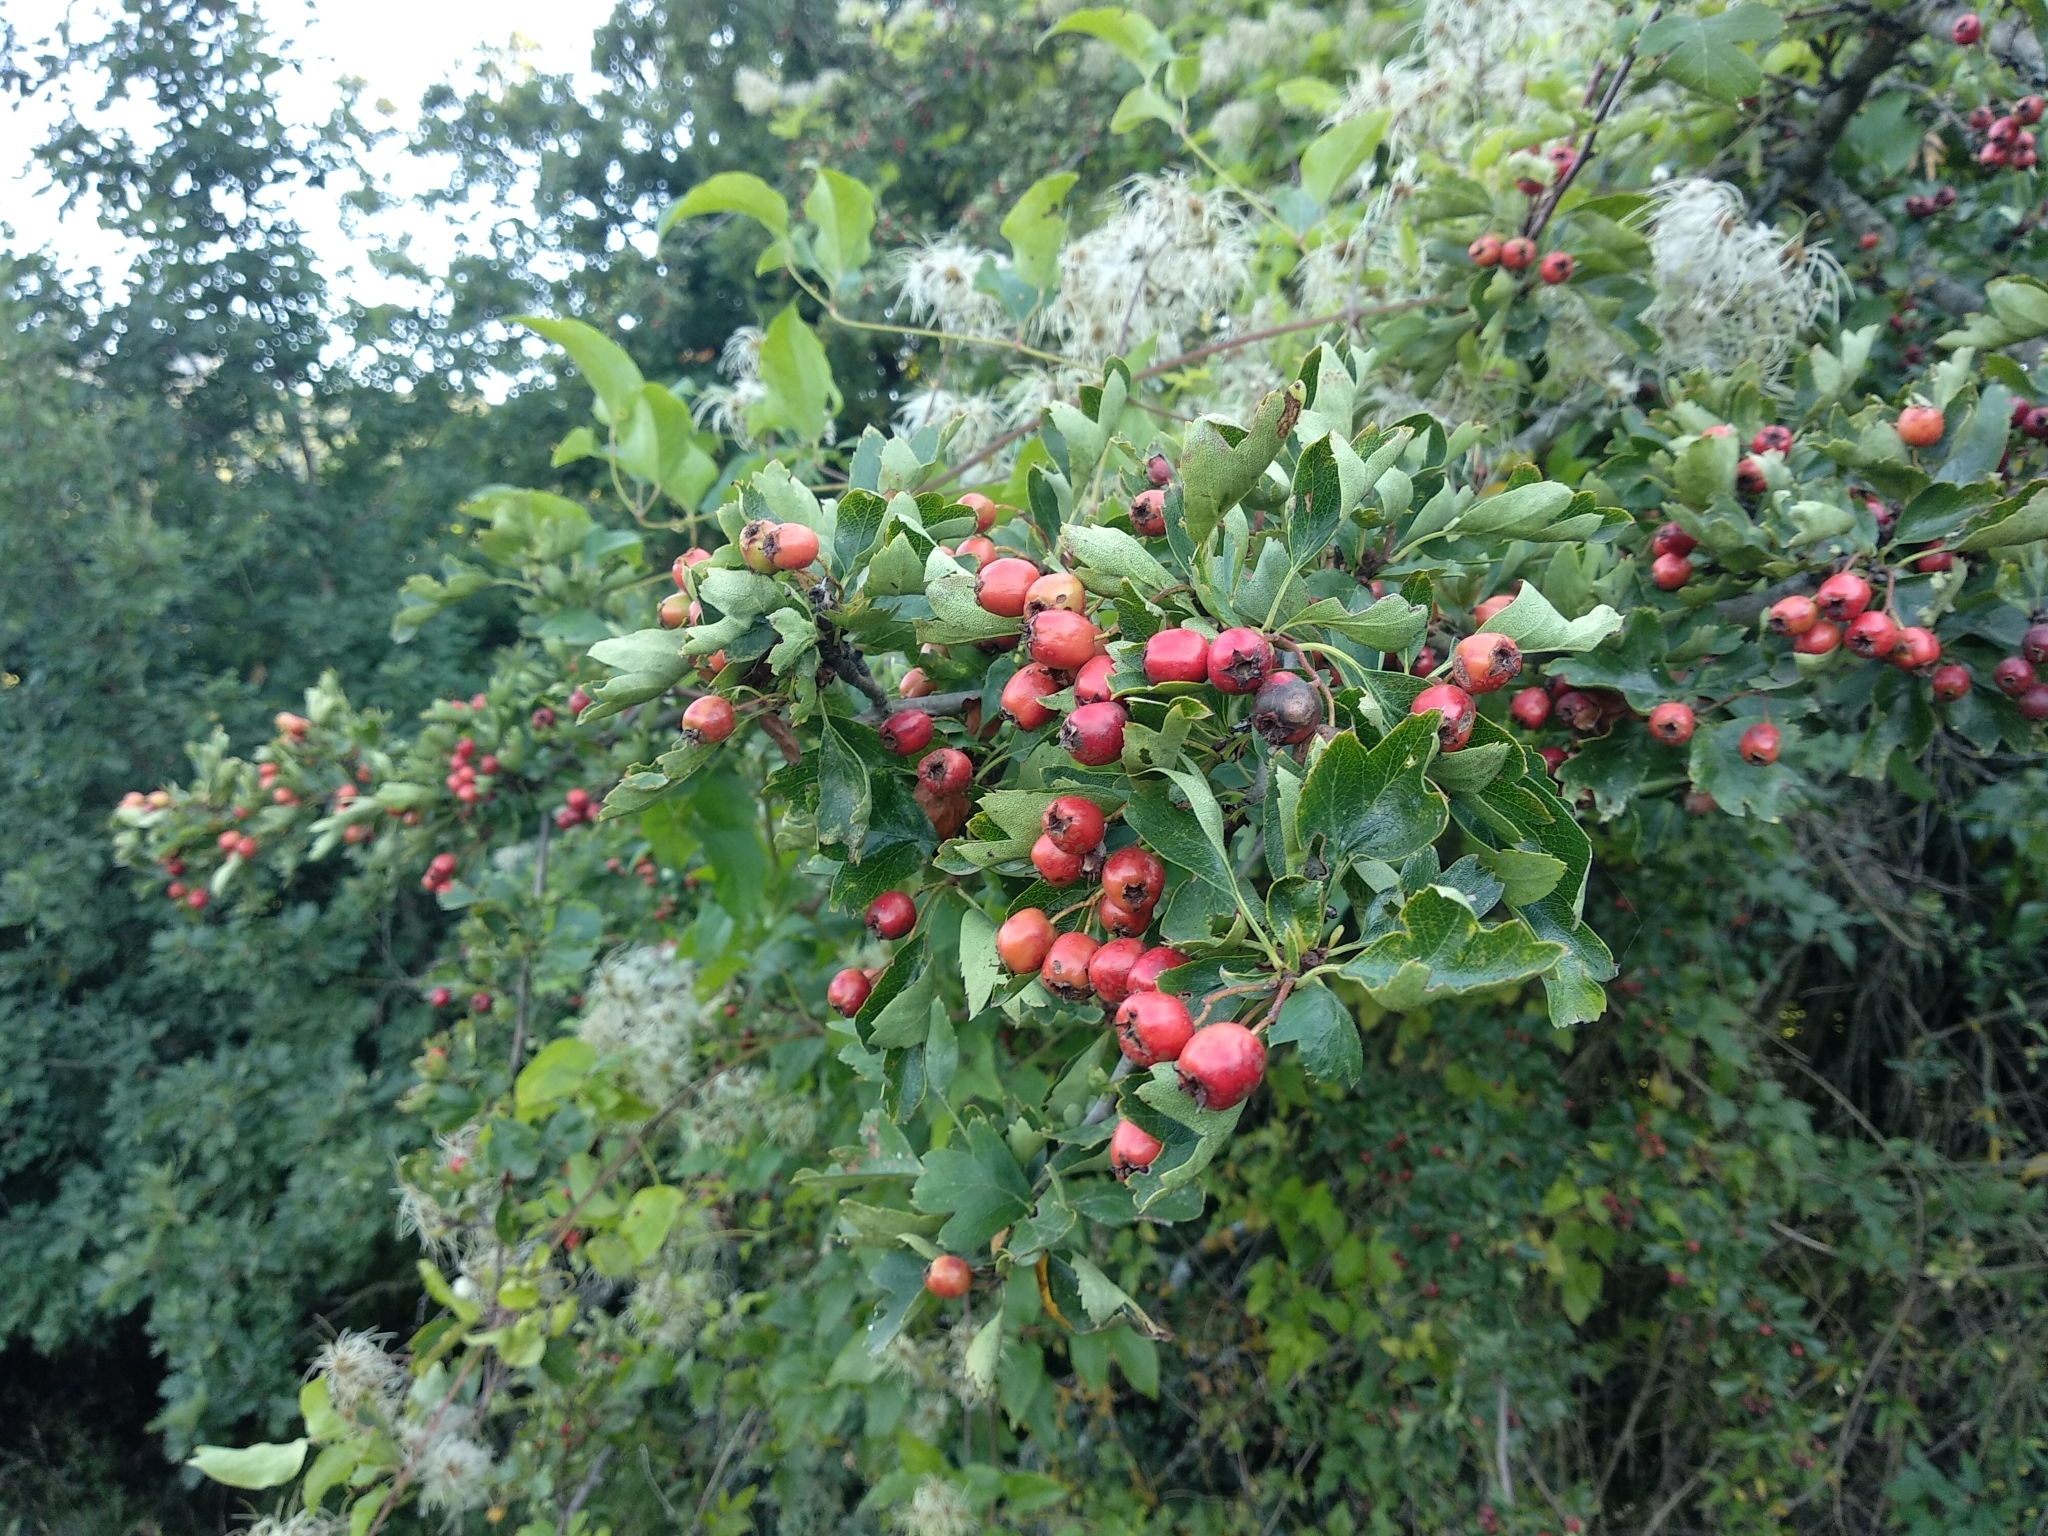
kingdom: Plantae
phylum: Tracheophyta
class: Magnoliopsida
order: Rosales
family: Rosaceae
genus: Crataegus
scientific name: Crataegus monogyna
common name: Hawthorn
